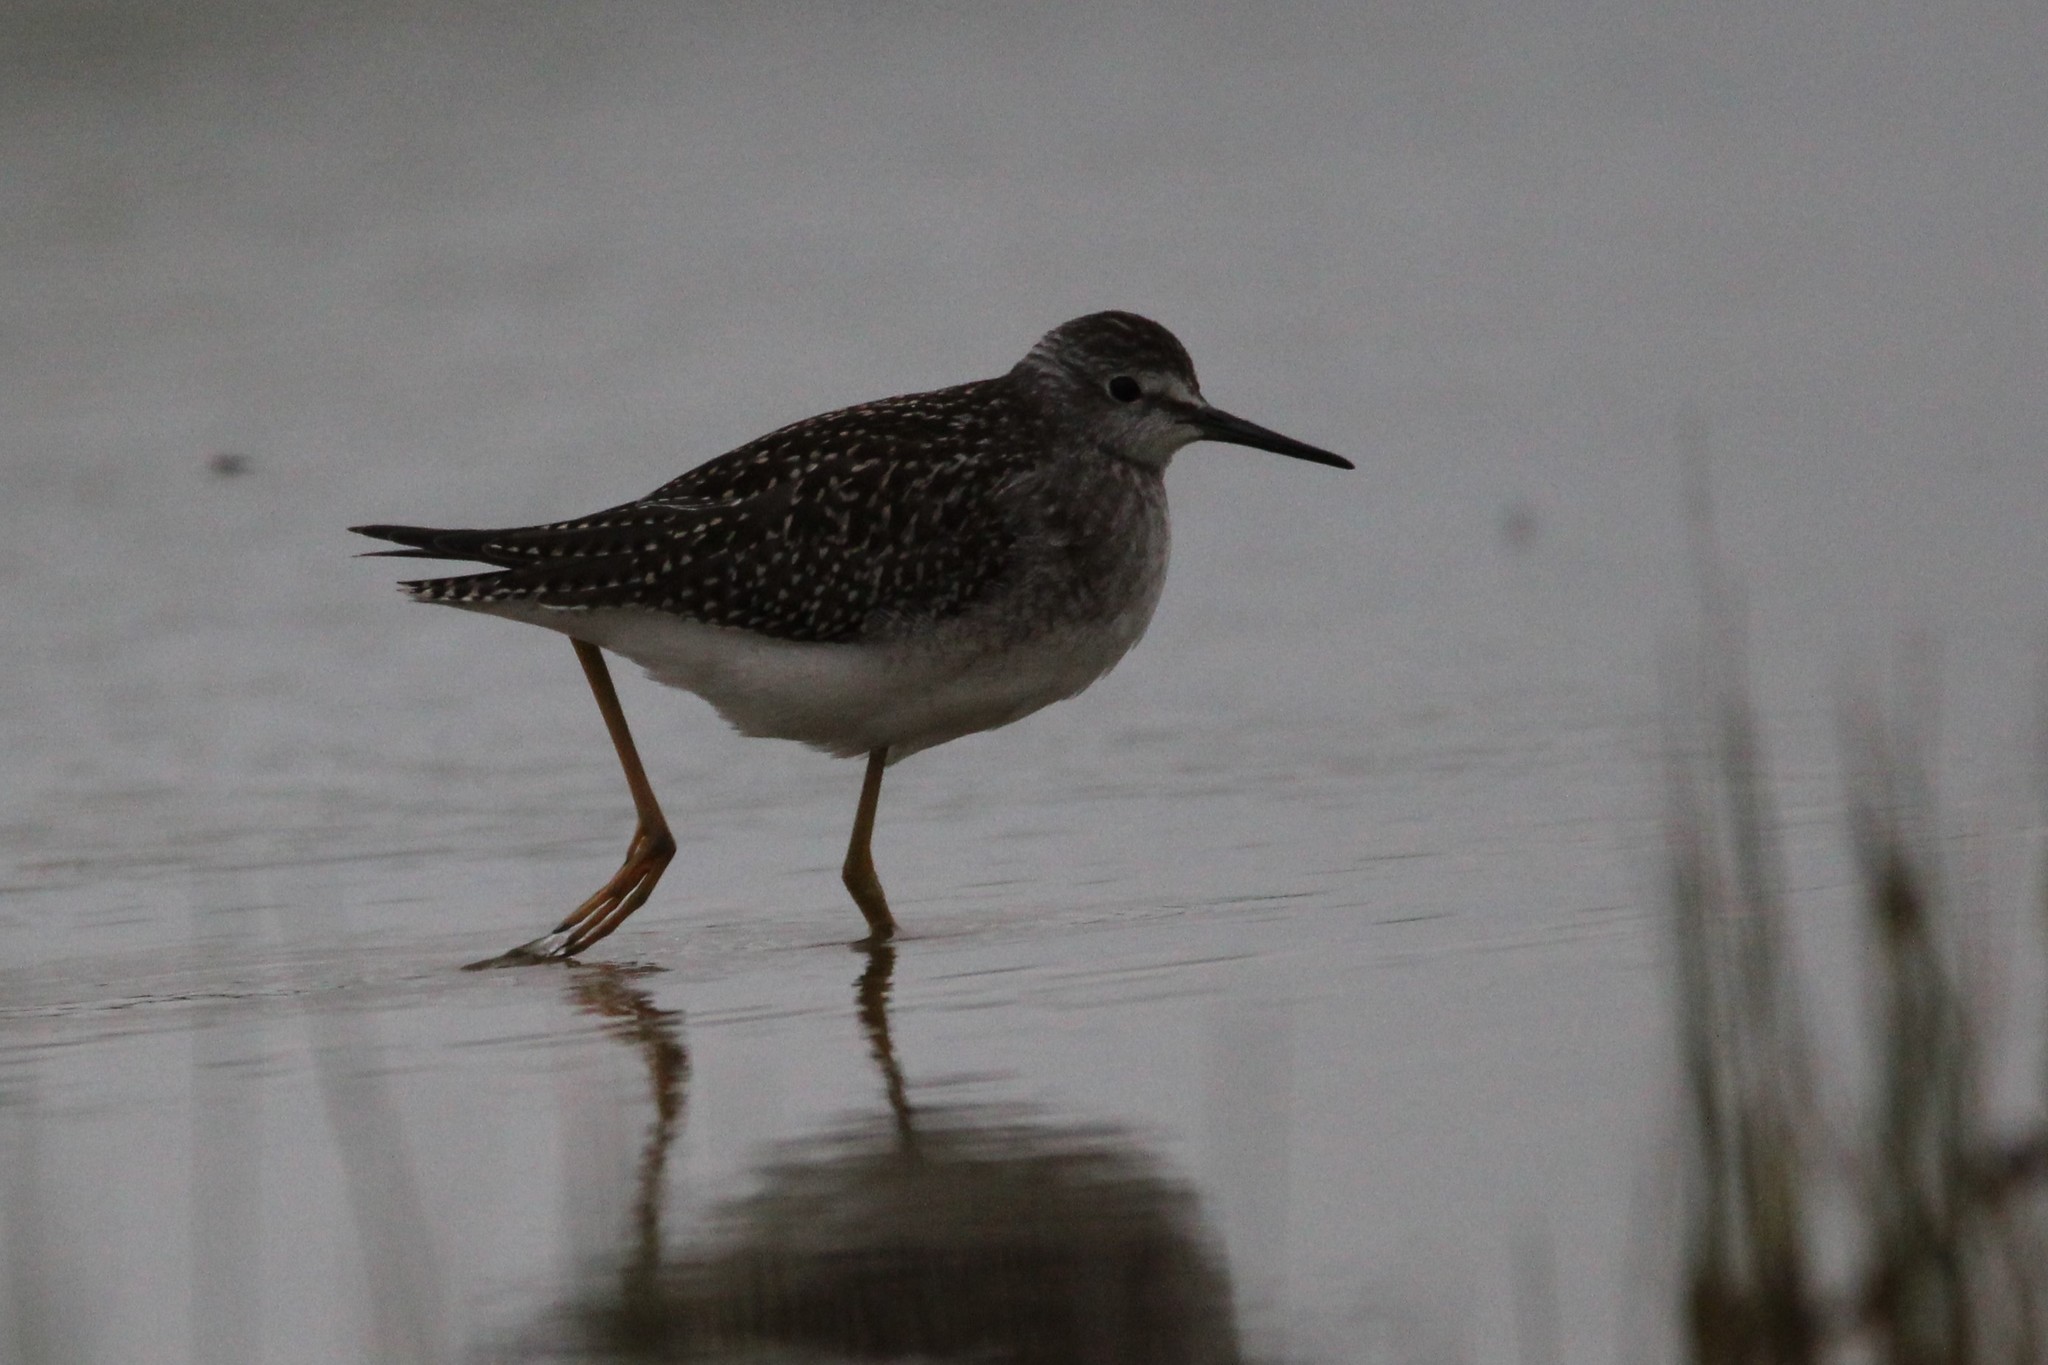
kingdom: Animalia
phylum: Chordata
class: Aves
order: Charadriiformes
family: Scolopacidae
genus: Tringa
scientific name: Tringa flavipes
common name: Lesser yellowlegs
